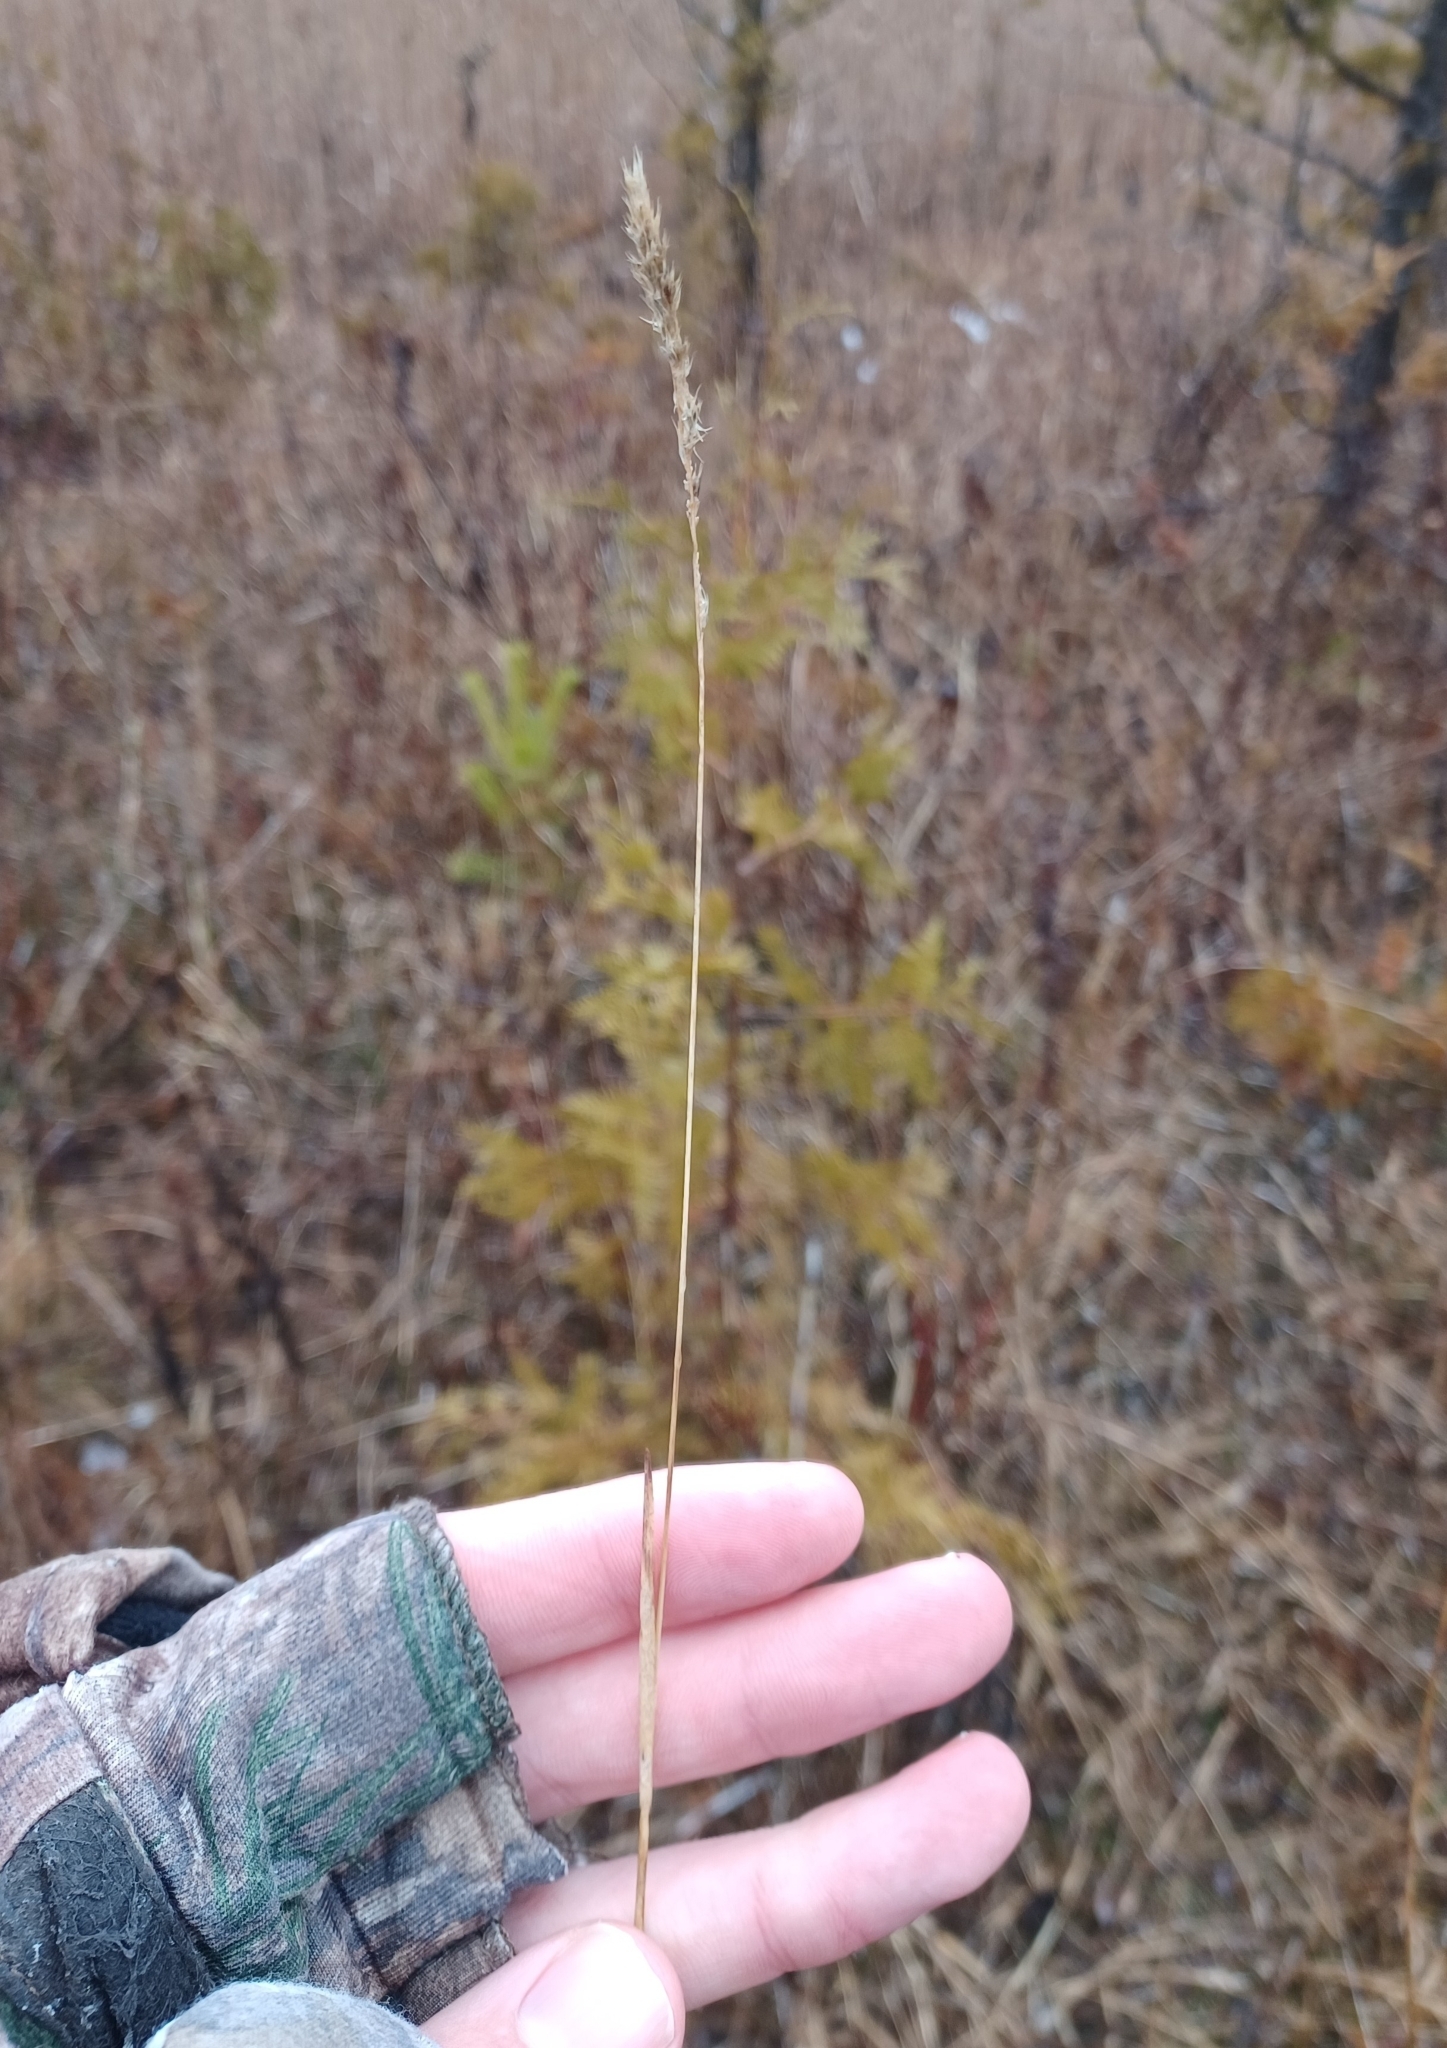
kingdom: Plantae
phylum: Tracheophyta
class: Liliopsida
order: Poales
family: Poaceae
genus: Muhlenbergia
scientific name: Muhlenbergia glomerata
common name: Bog muhly
